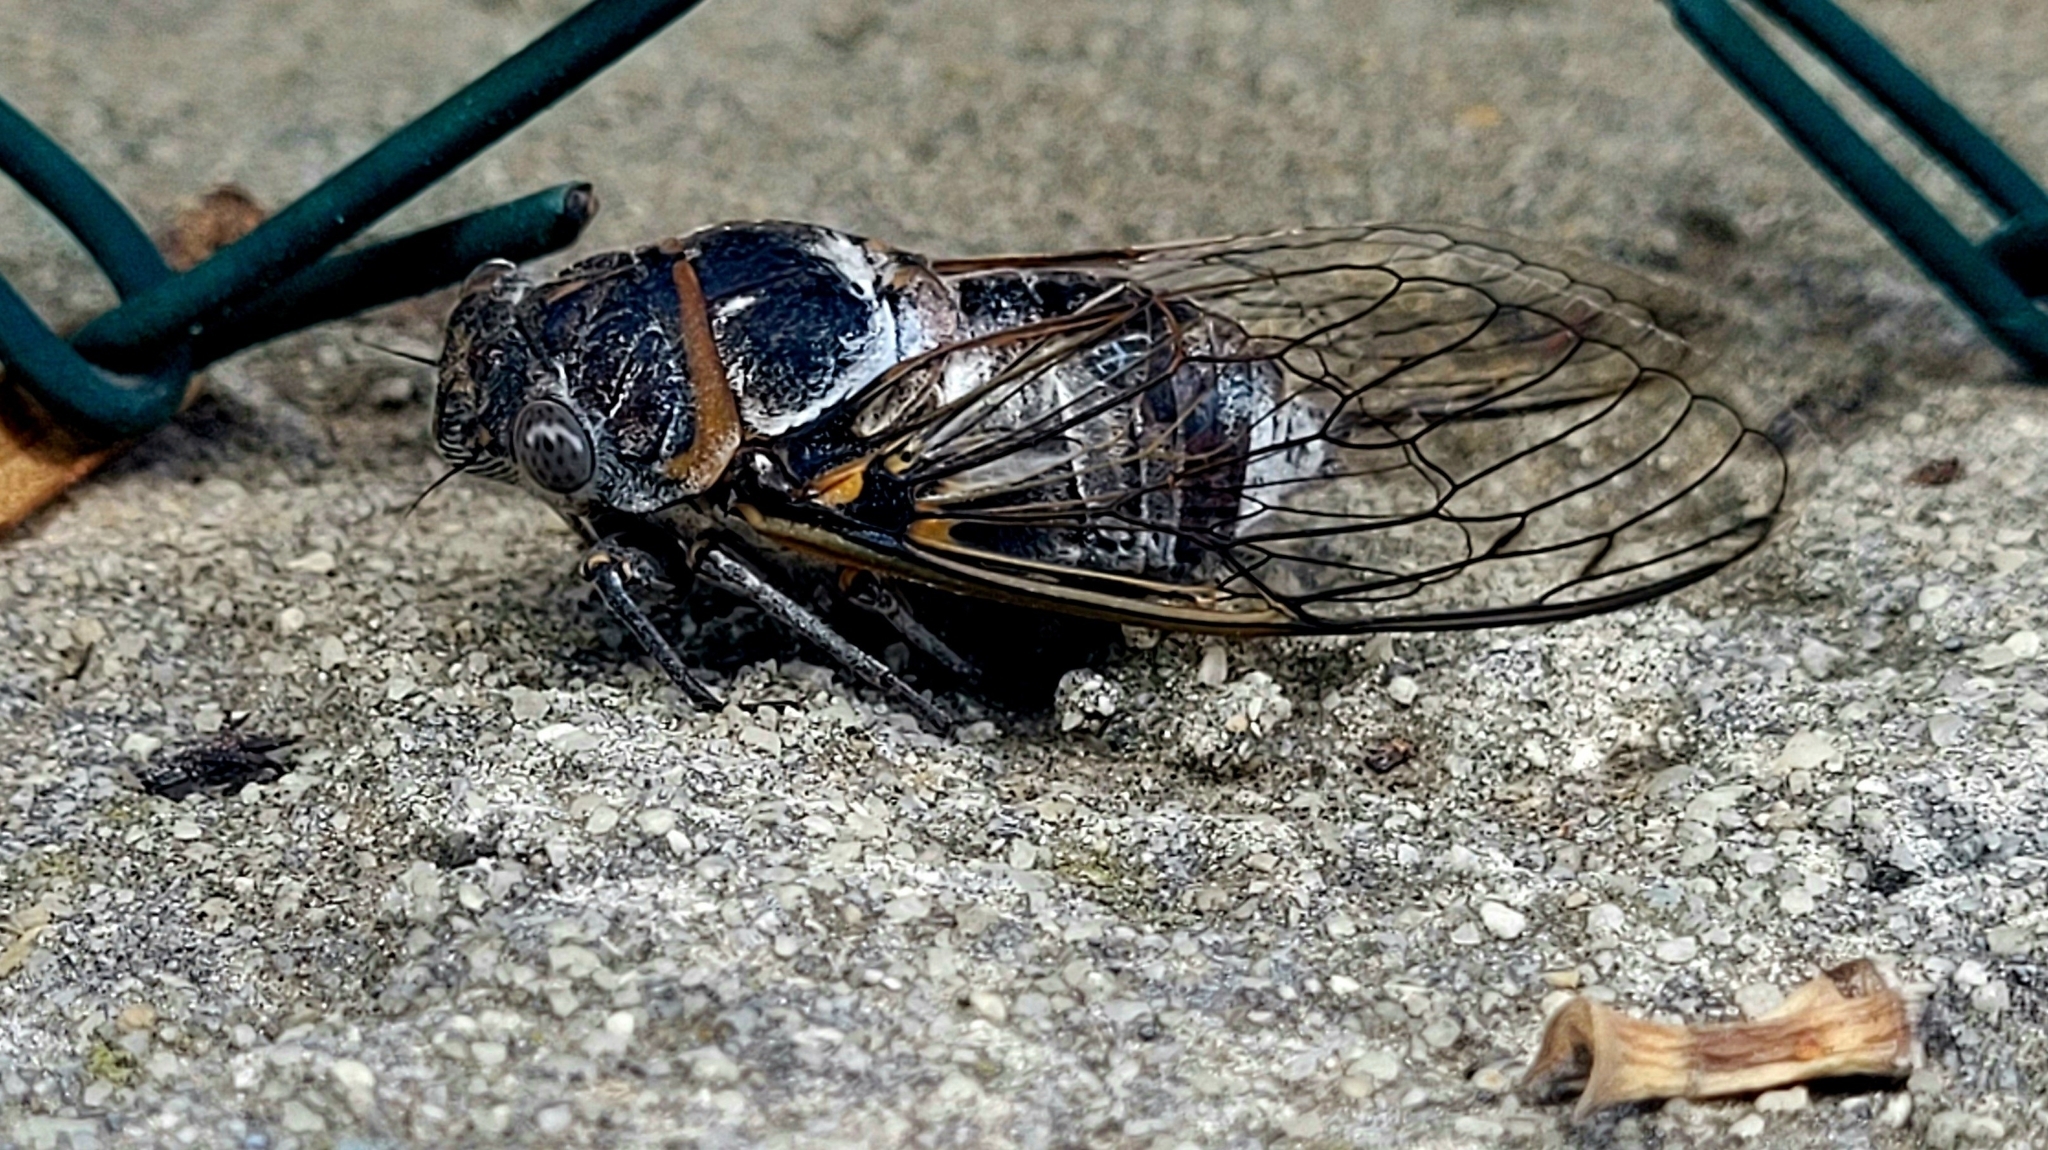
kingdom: Animalia
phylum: Arthropoda
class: Insecta
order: Hemiptera
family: Cicadidae
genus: Lyristes
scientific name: Lyristes plebejus
